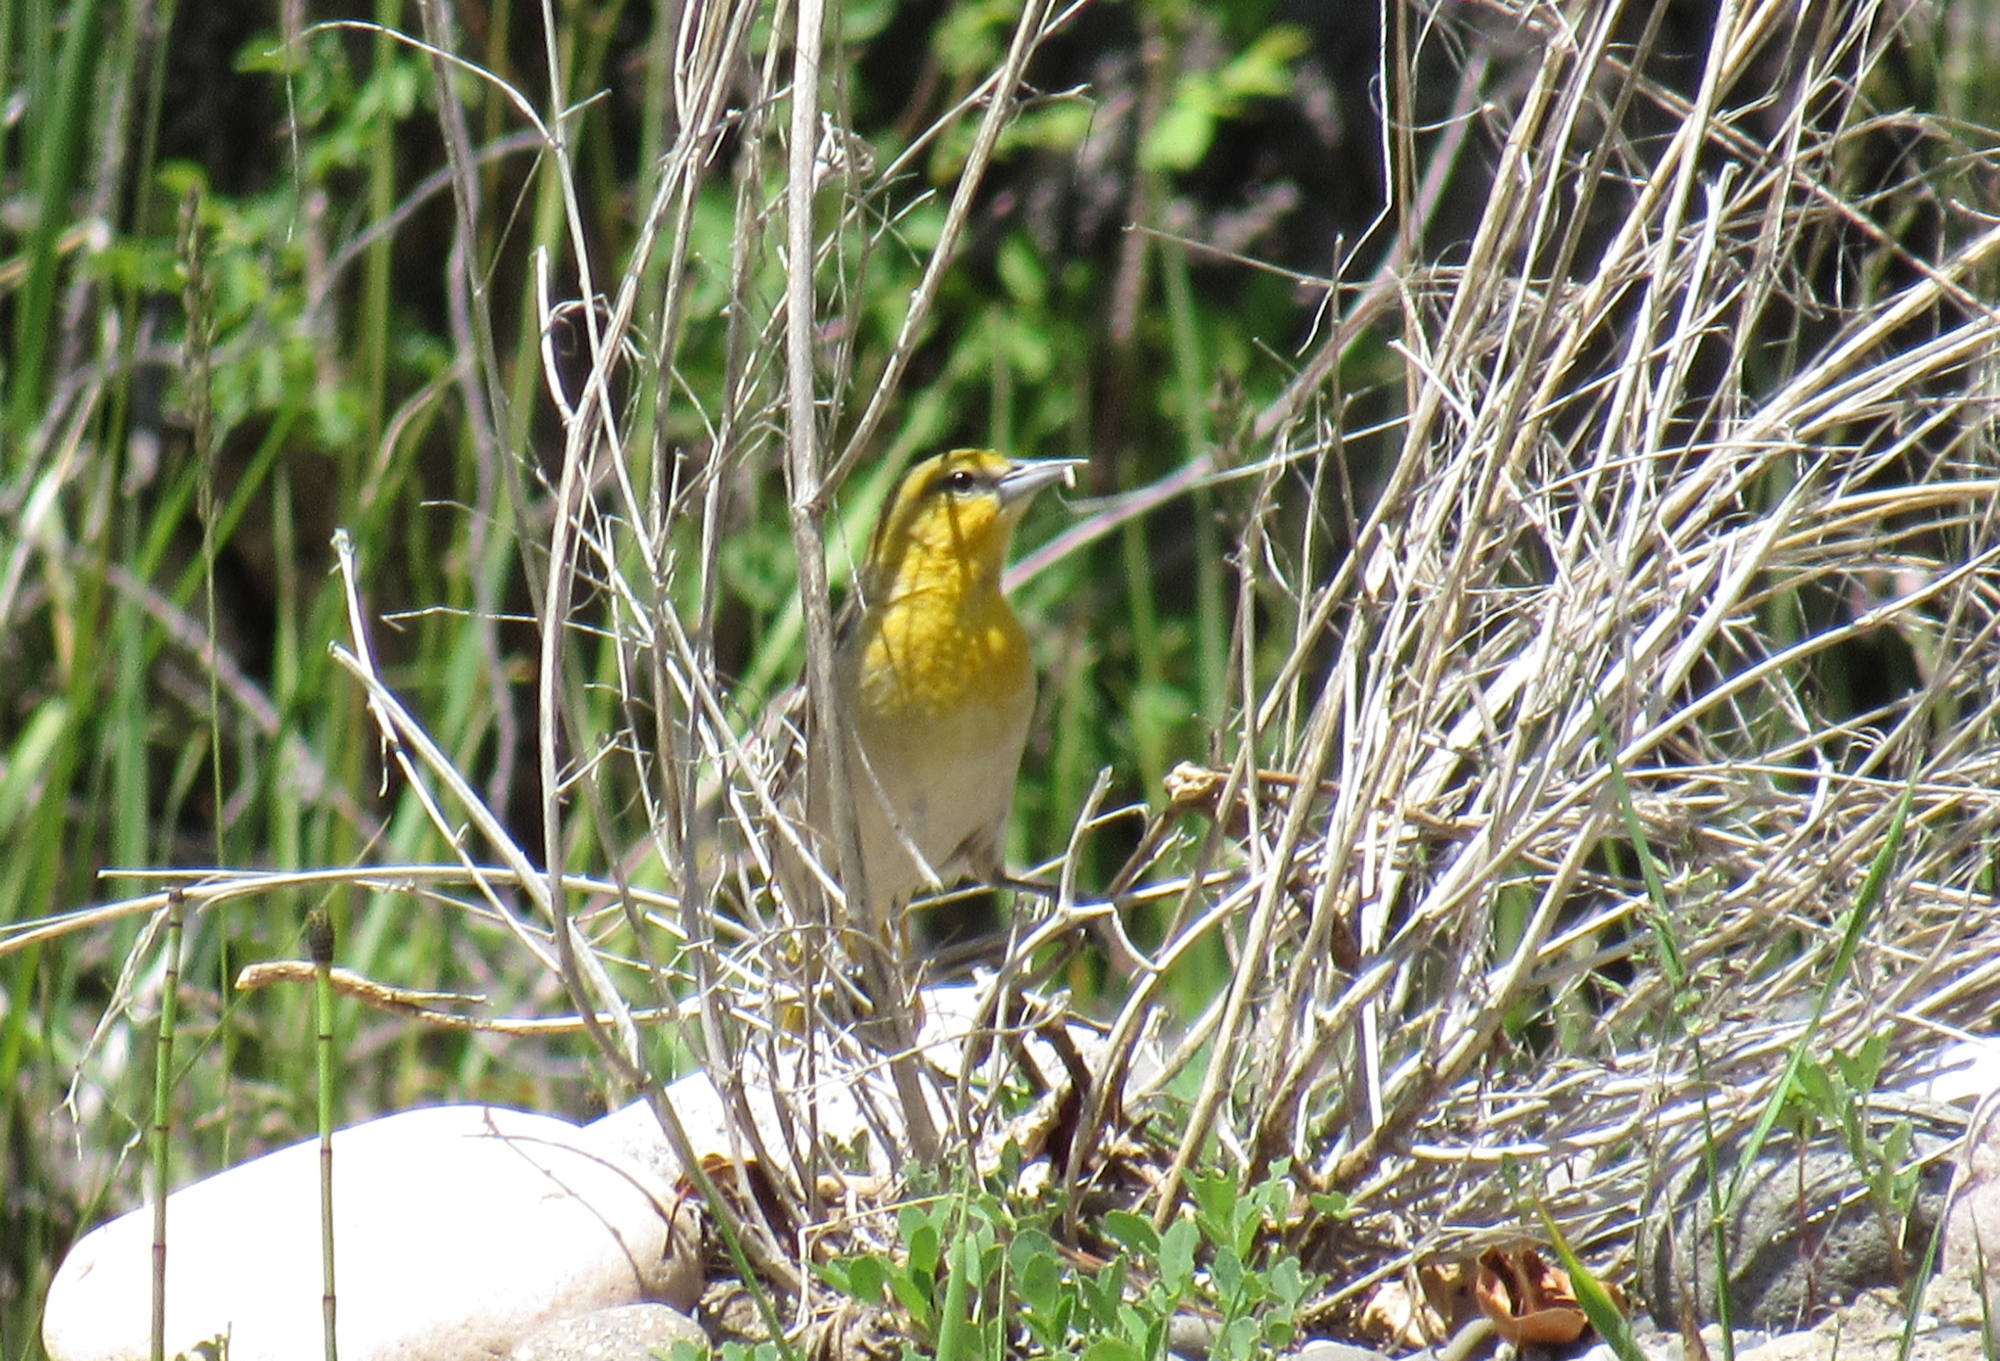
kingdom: Animalia
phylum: Chordata
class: Aves
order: Passeriformes
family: Icteridae
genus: Icterus
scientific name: Icterus bullockii
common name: Bullock's oriole
